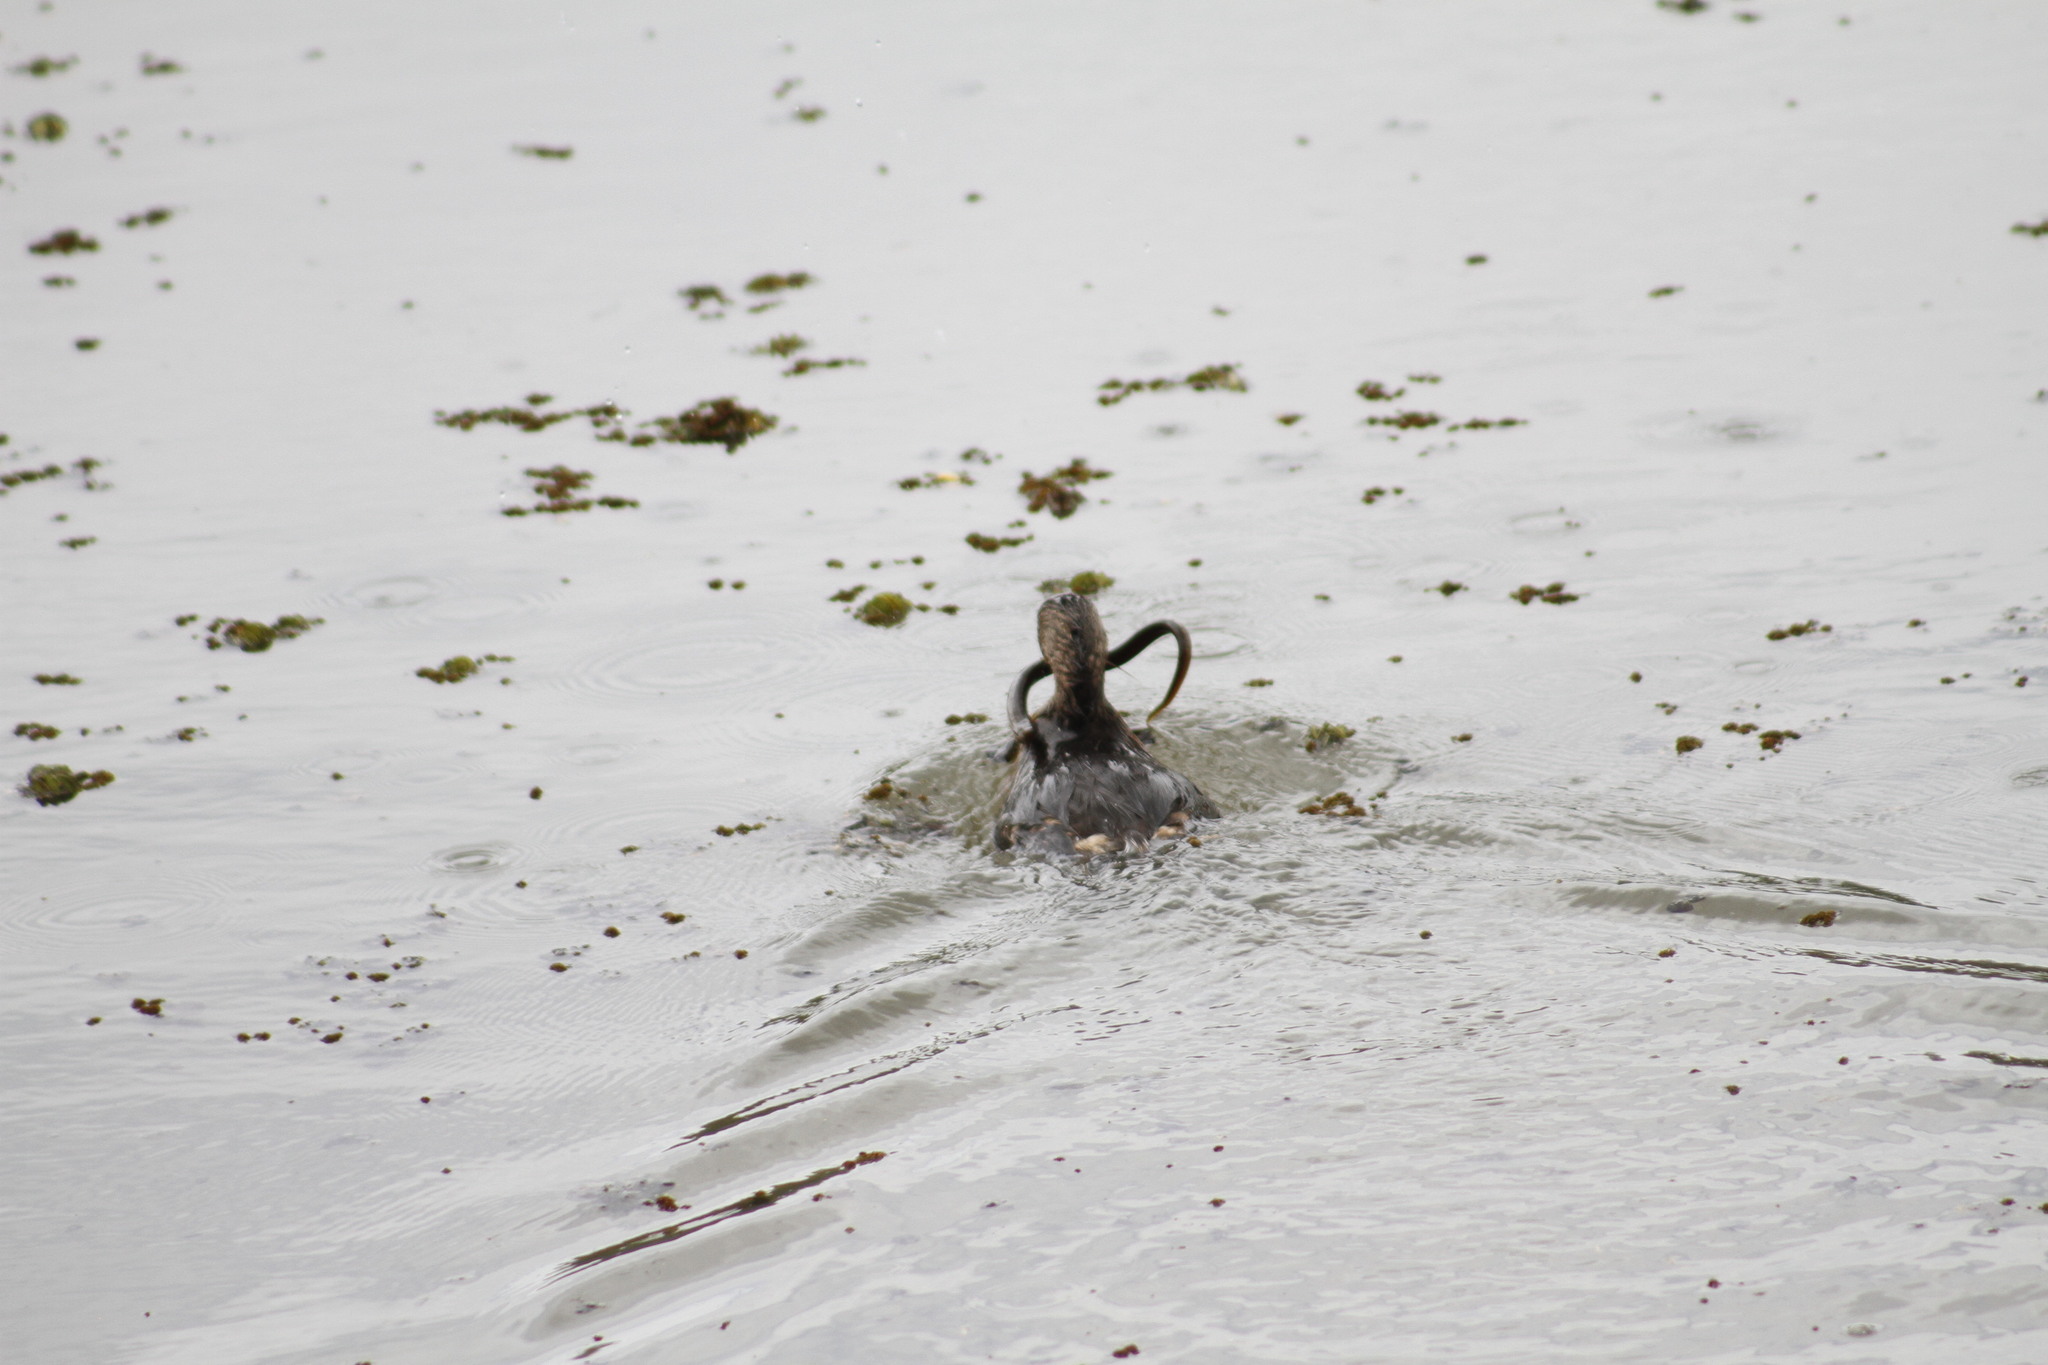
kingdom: Animalia
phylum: Chordata
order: Synbranchiformes
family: Synbranchidae
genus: Synbranchus
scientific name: Synbranchus marmoratus
